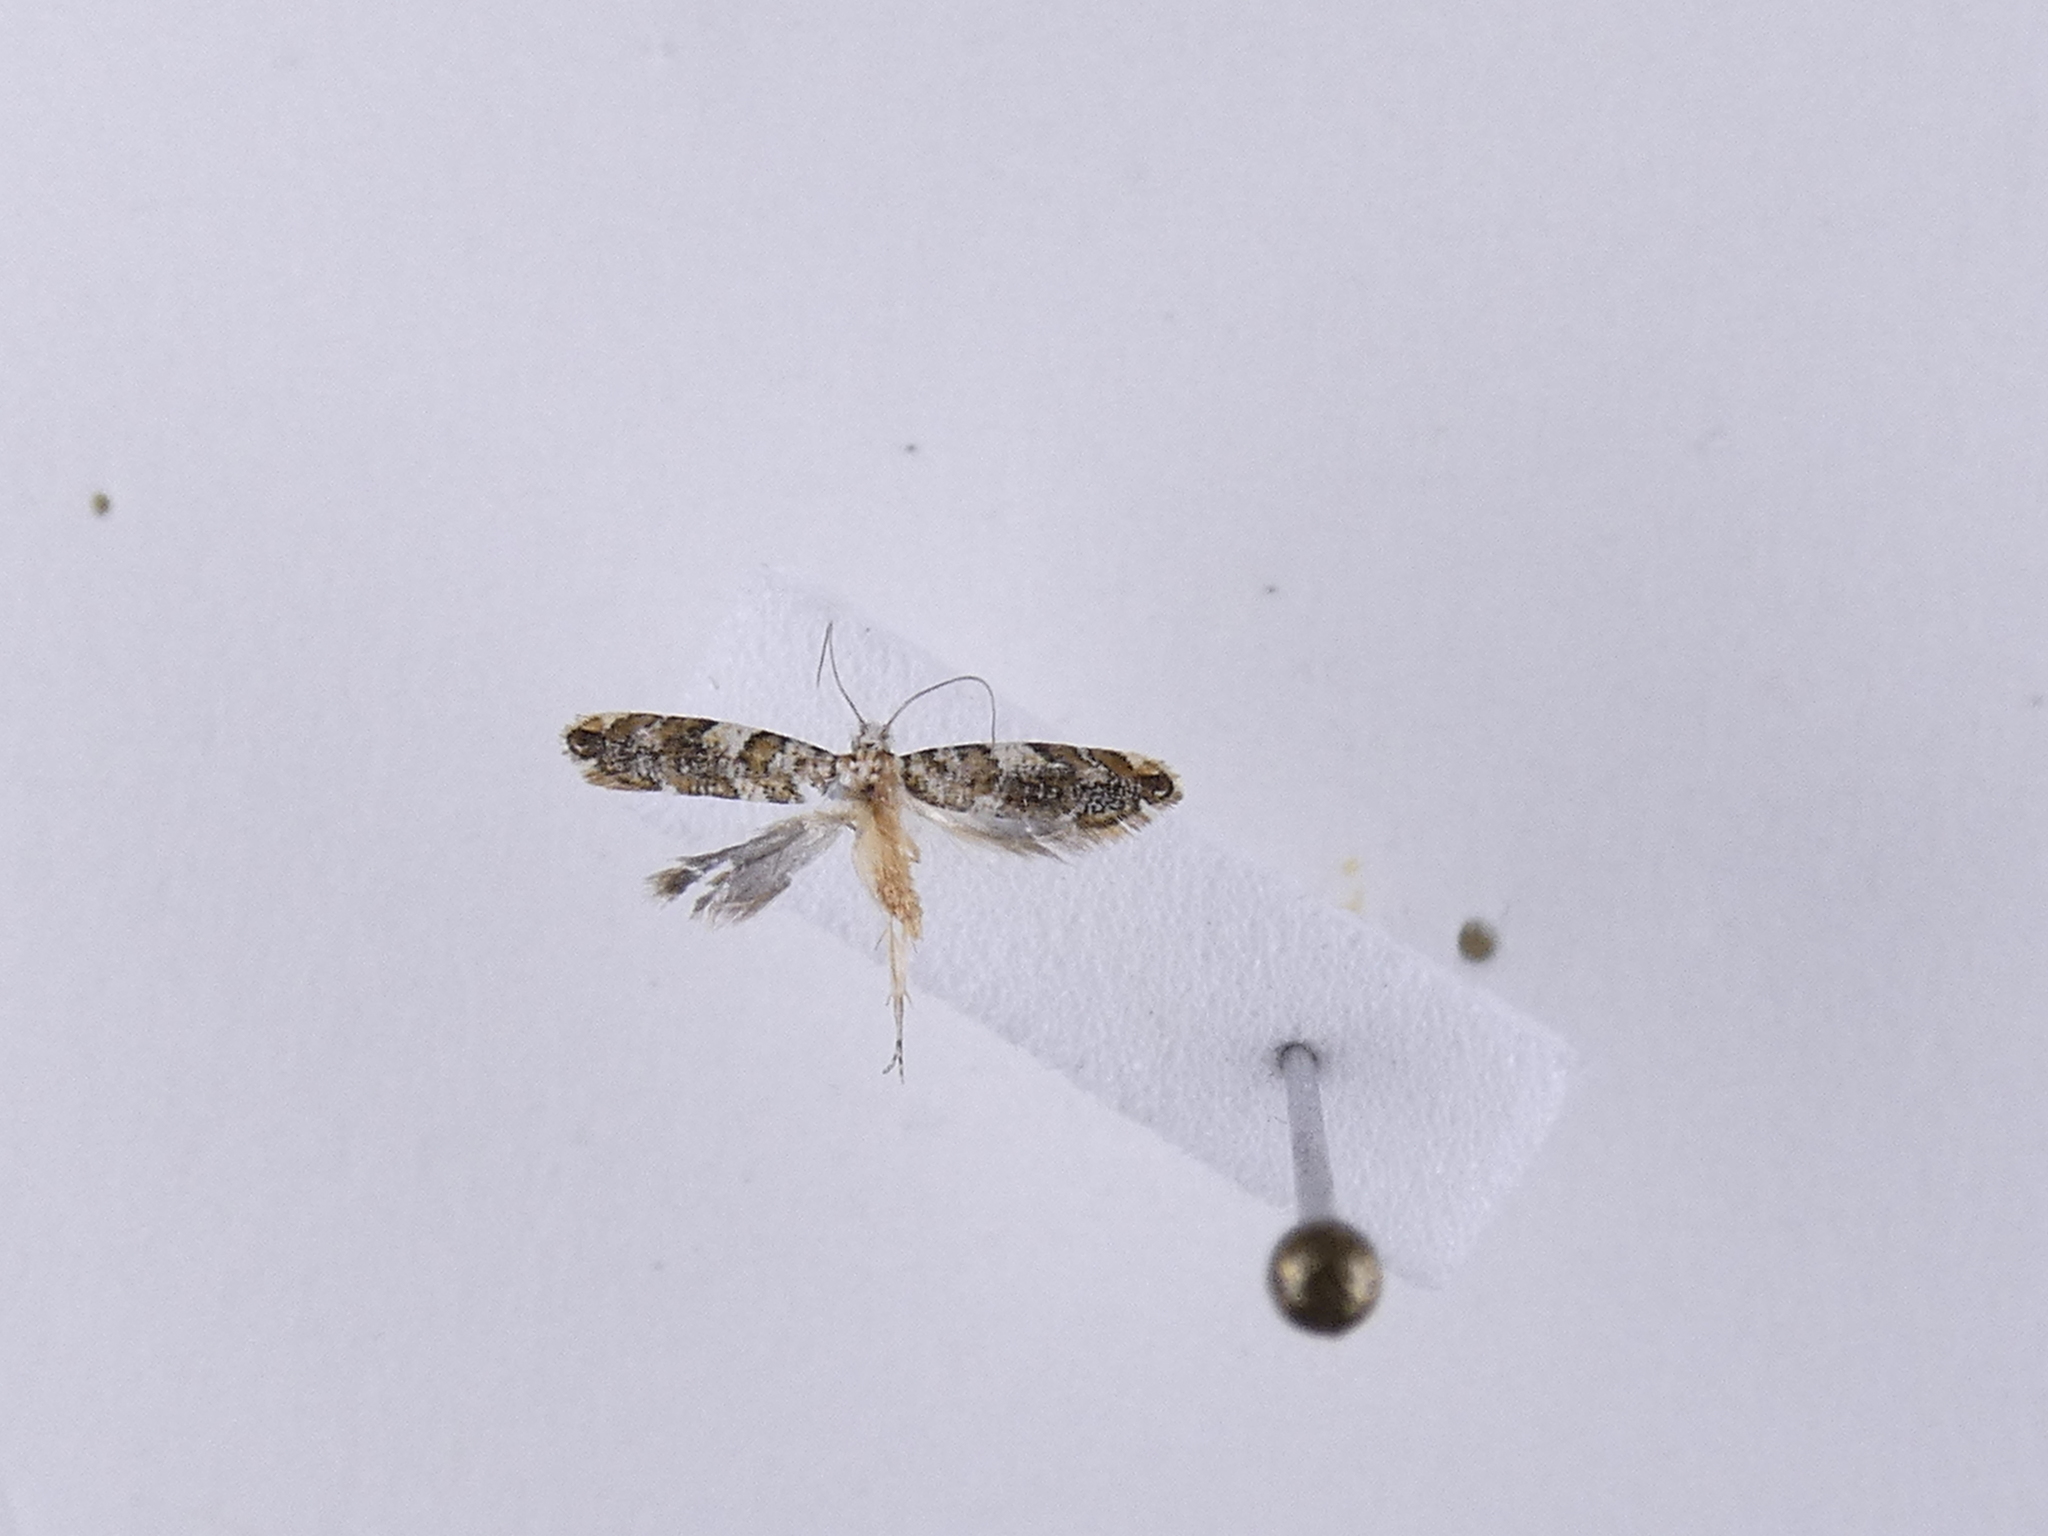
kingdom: Animalia
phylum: Arthropoda
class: Insecta
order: Lepidoptera
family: Tineidae
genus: Eschatotypa
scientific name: Eschatotypa derogatella
